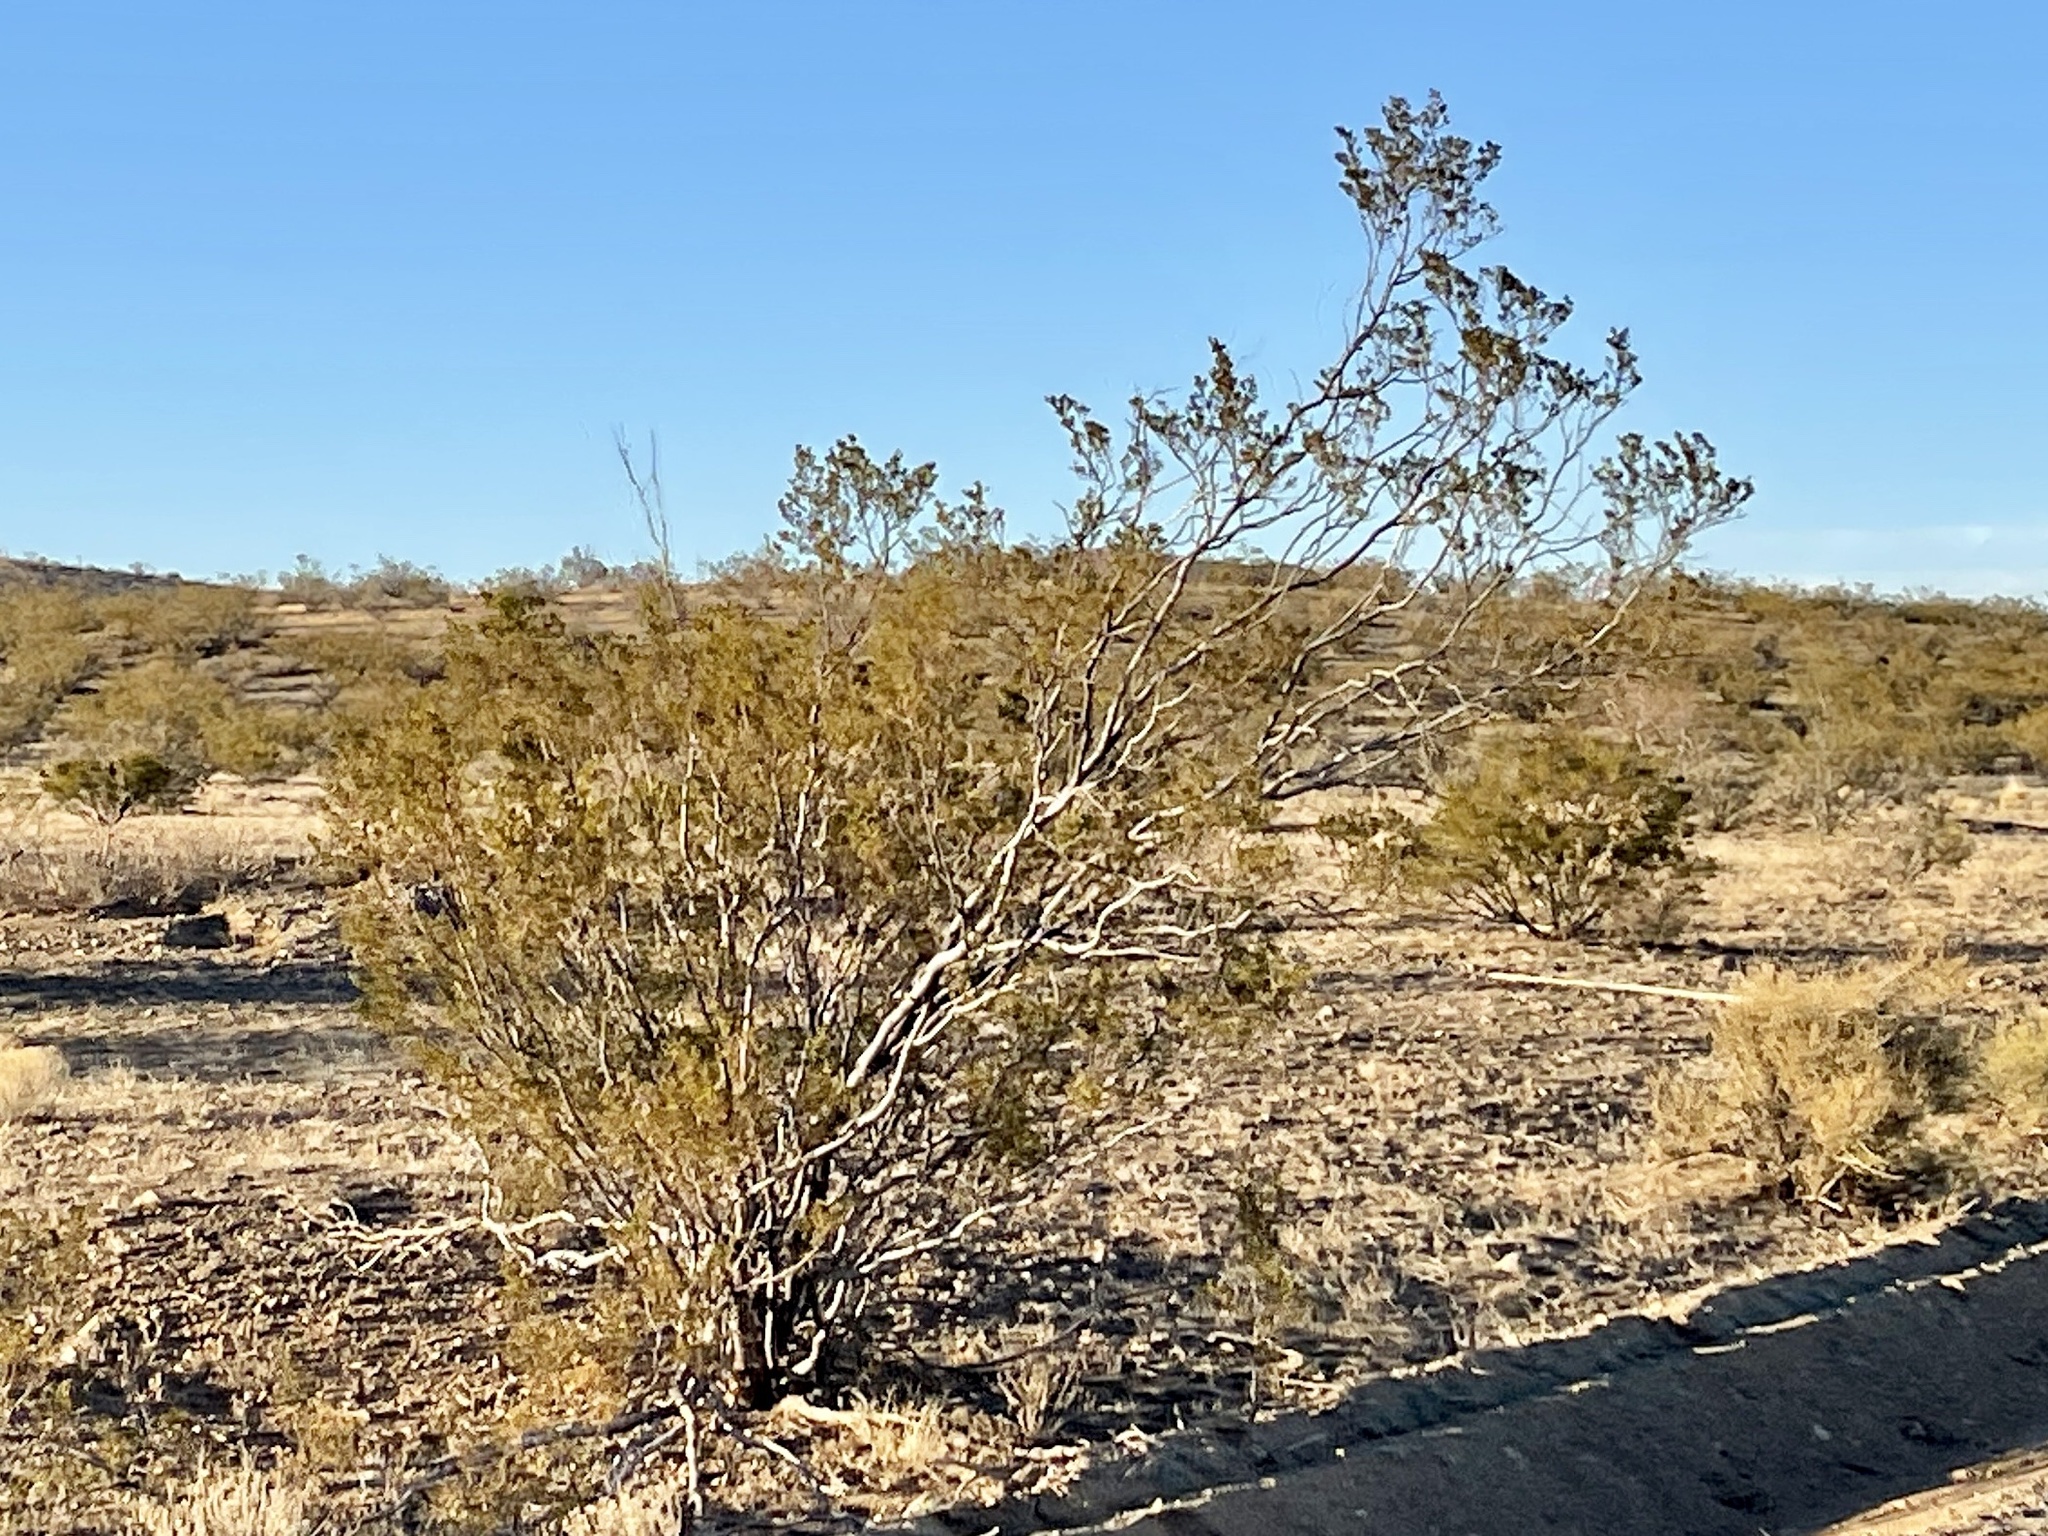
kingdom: Plantae
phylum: Tracheophyta
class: Magnoliopsida
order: Zygophyllales
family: Zygophyllaceae
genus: Larrea
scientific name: Larrea tridentata
